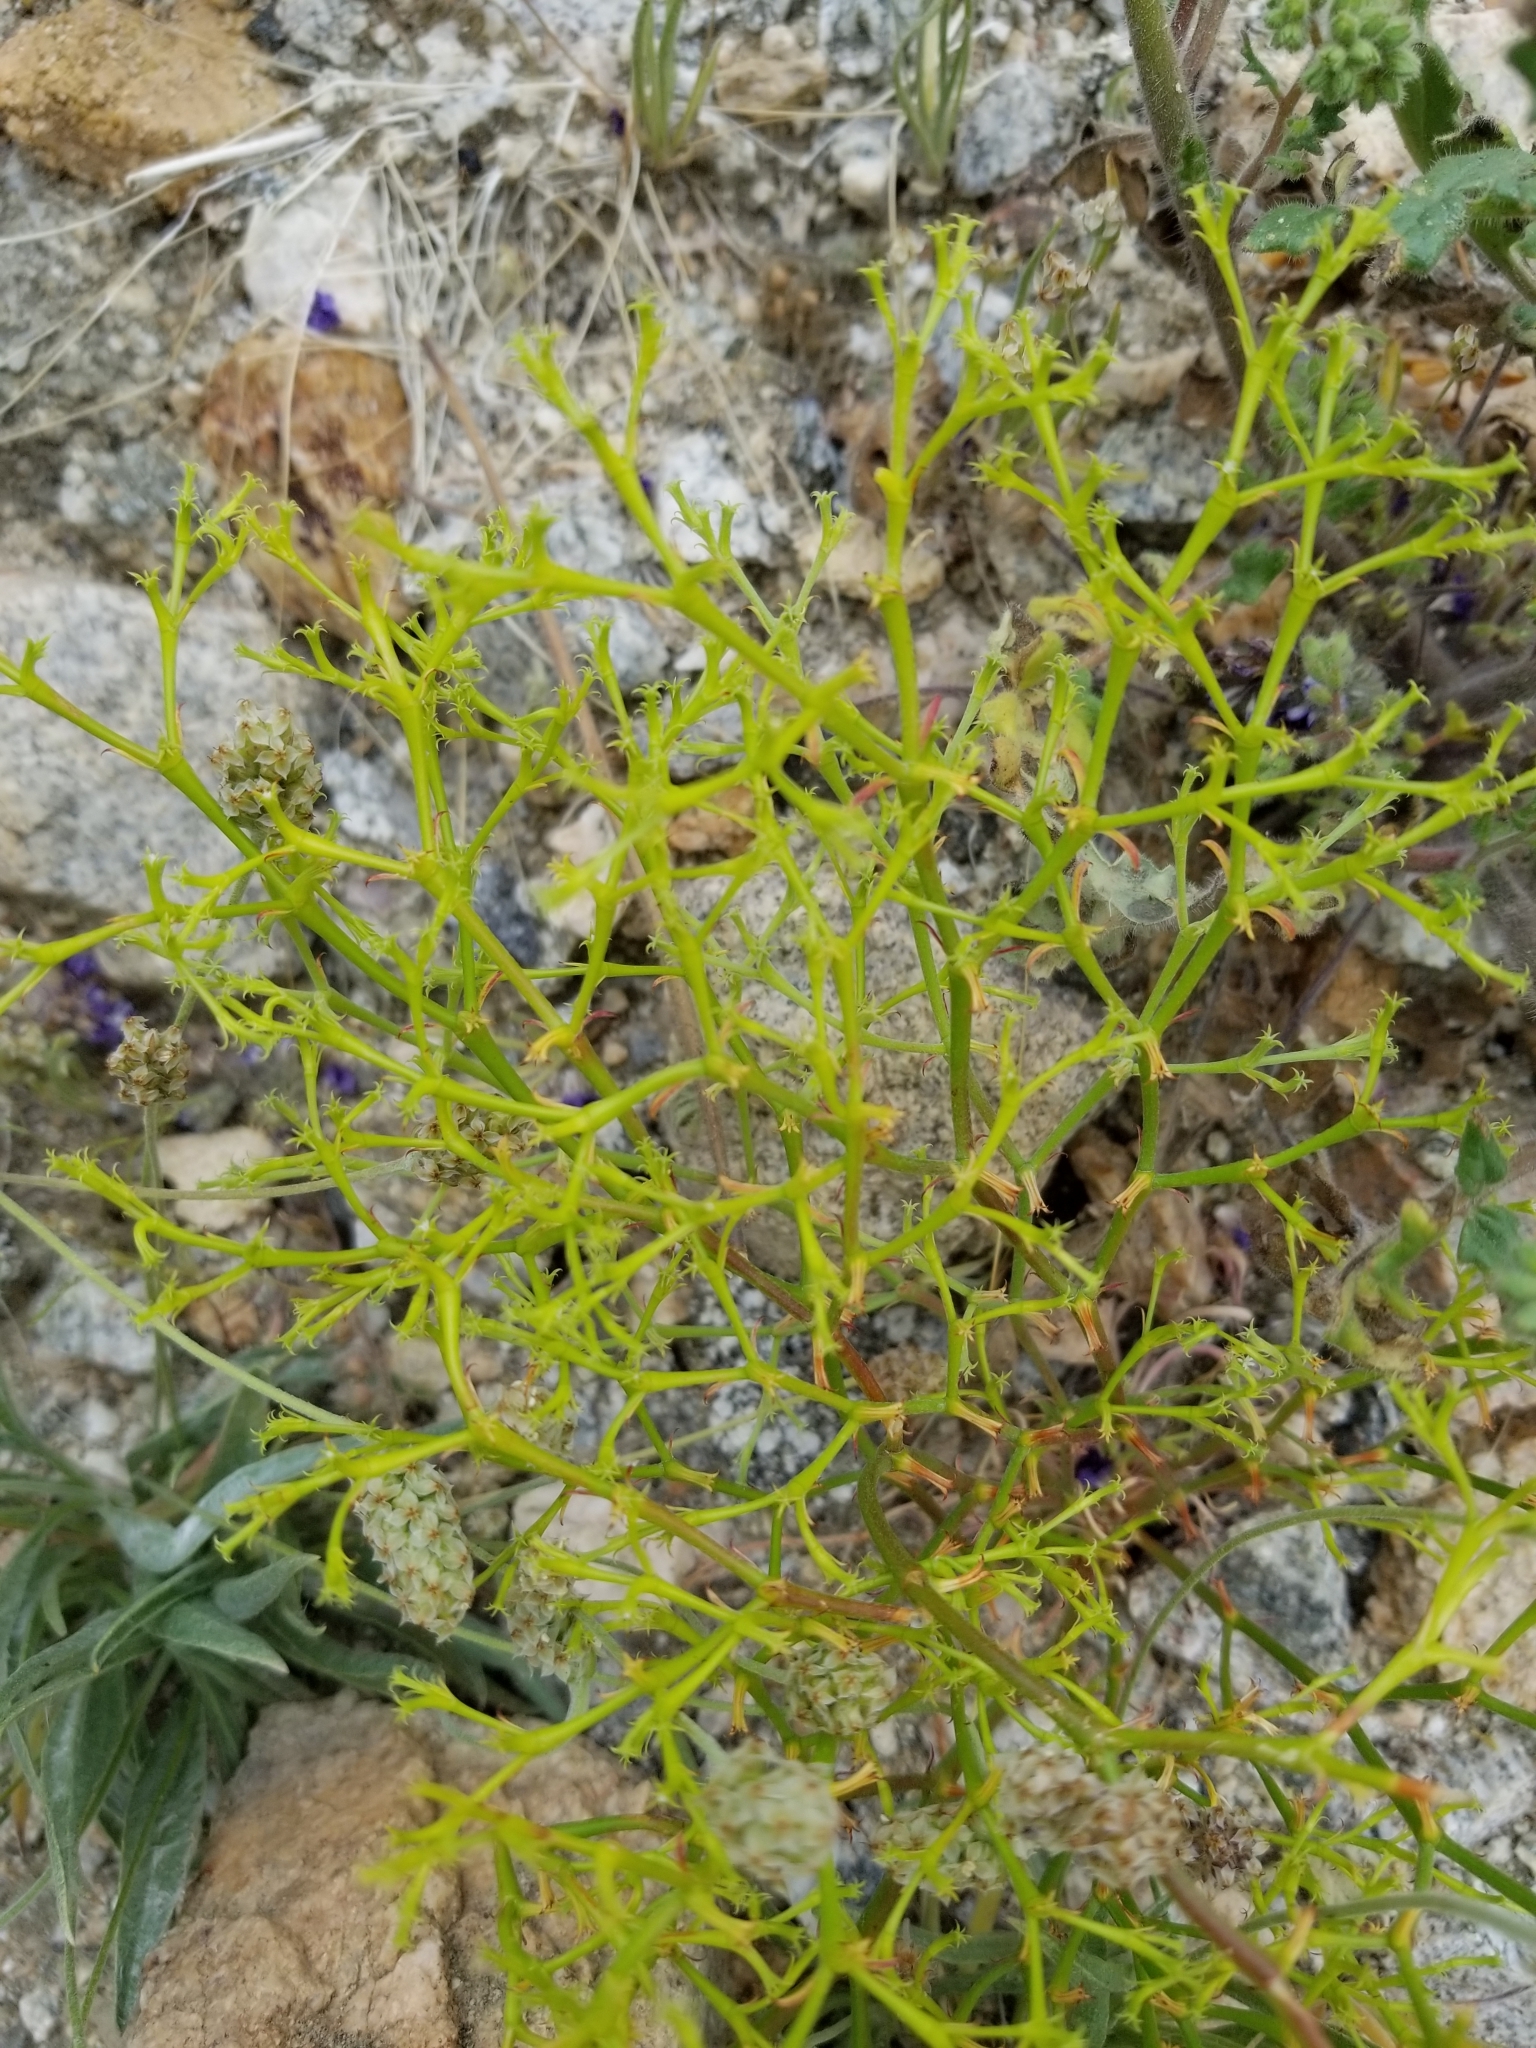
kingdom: Plantae
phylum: Tracheophyta
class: Magnoliopsida
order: Caryophyllales
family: Polygonaceae
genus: Chorizanthe
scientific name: Chorizanthe brevicornu
